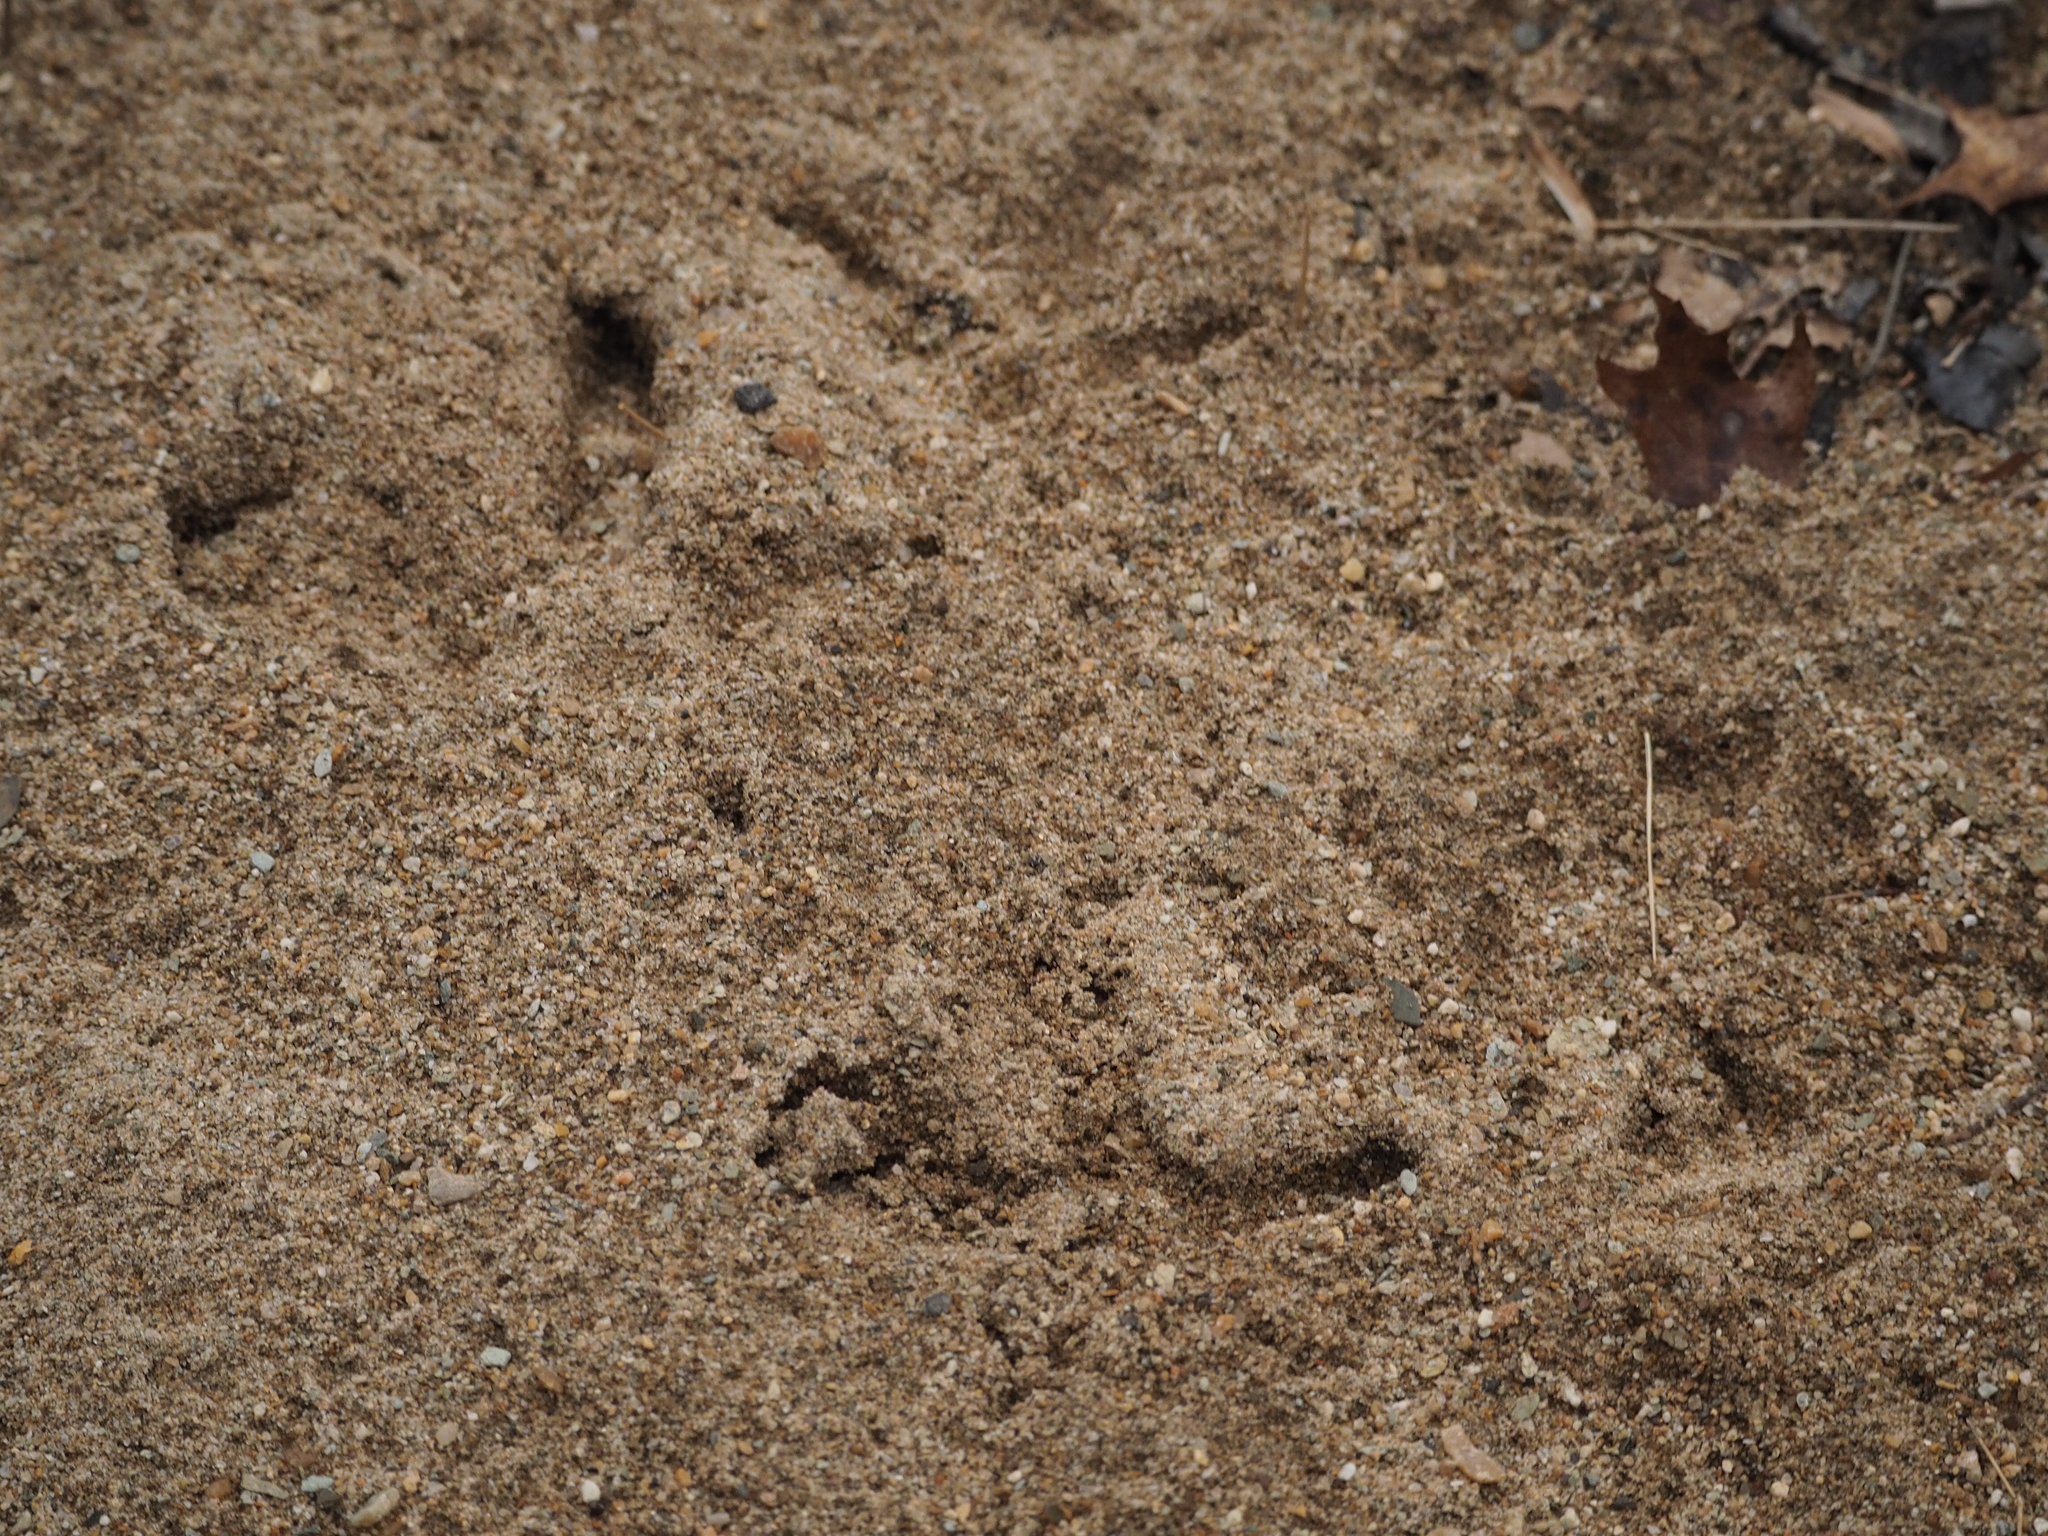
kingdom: Animalia
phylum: Chordata
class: Aves
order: Galliformes
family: Phasianidae
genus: Meleagris
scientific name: Meleagris gallopavo
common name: Wild turkey
